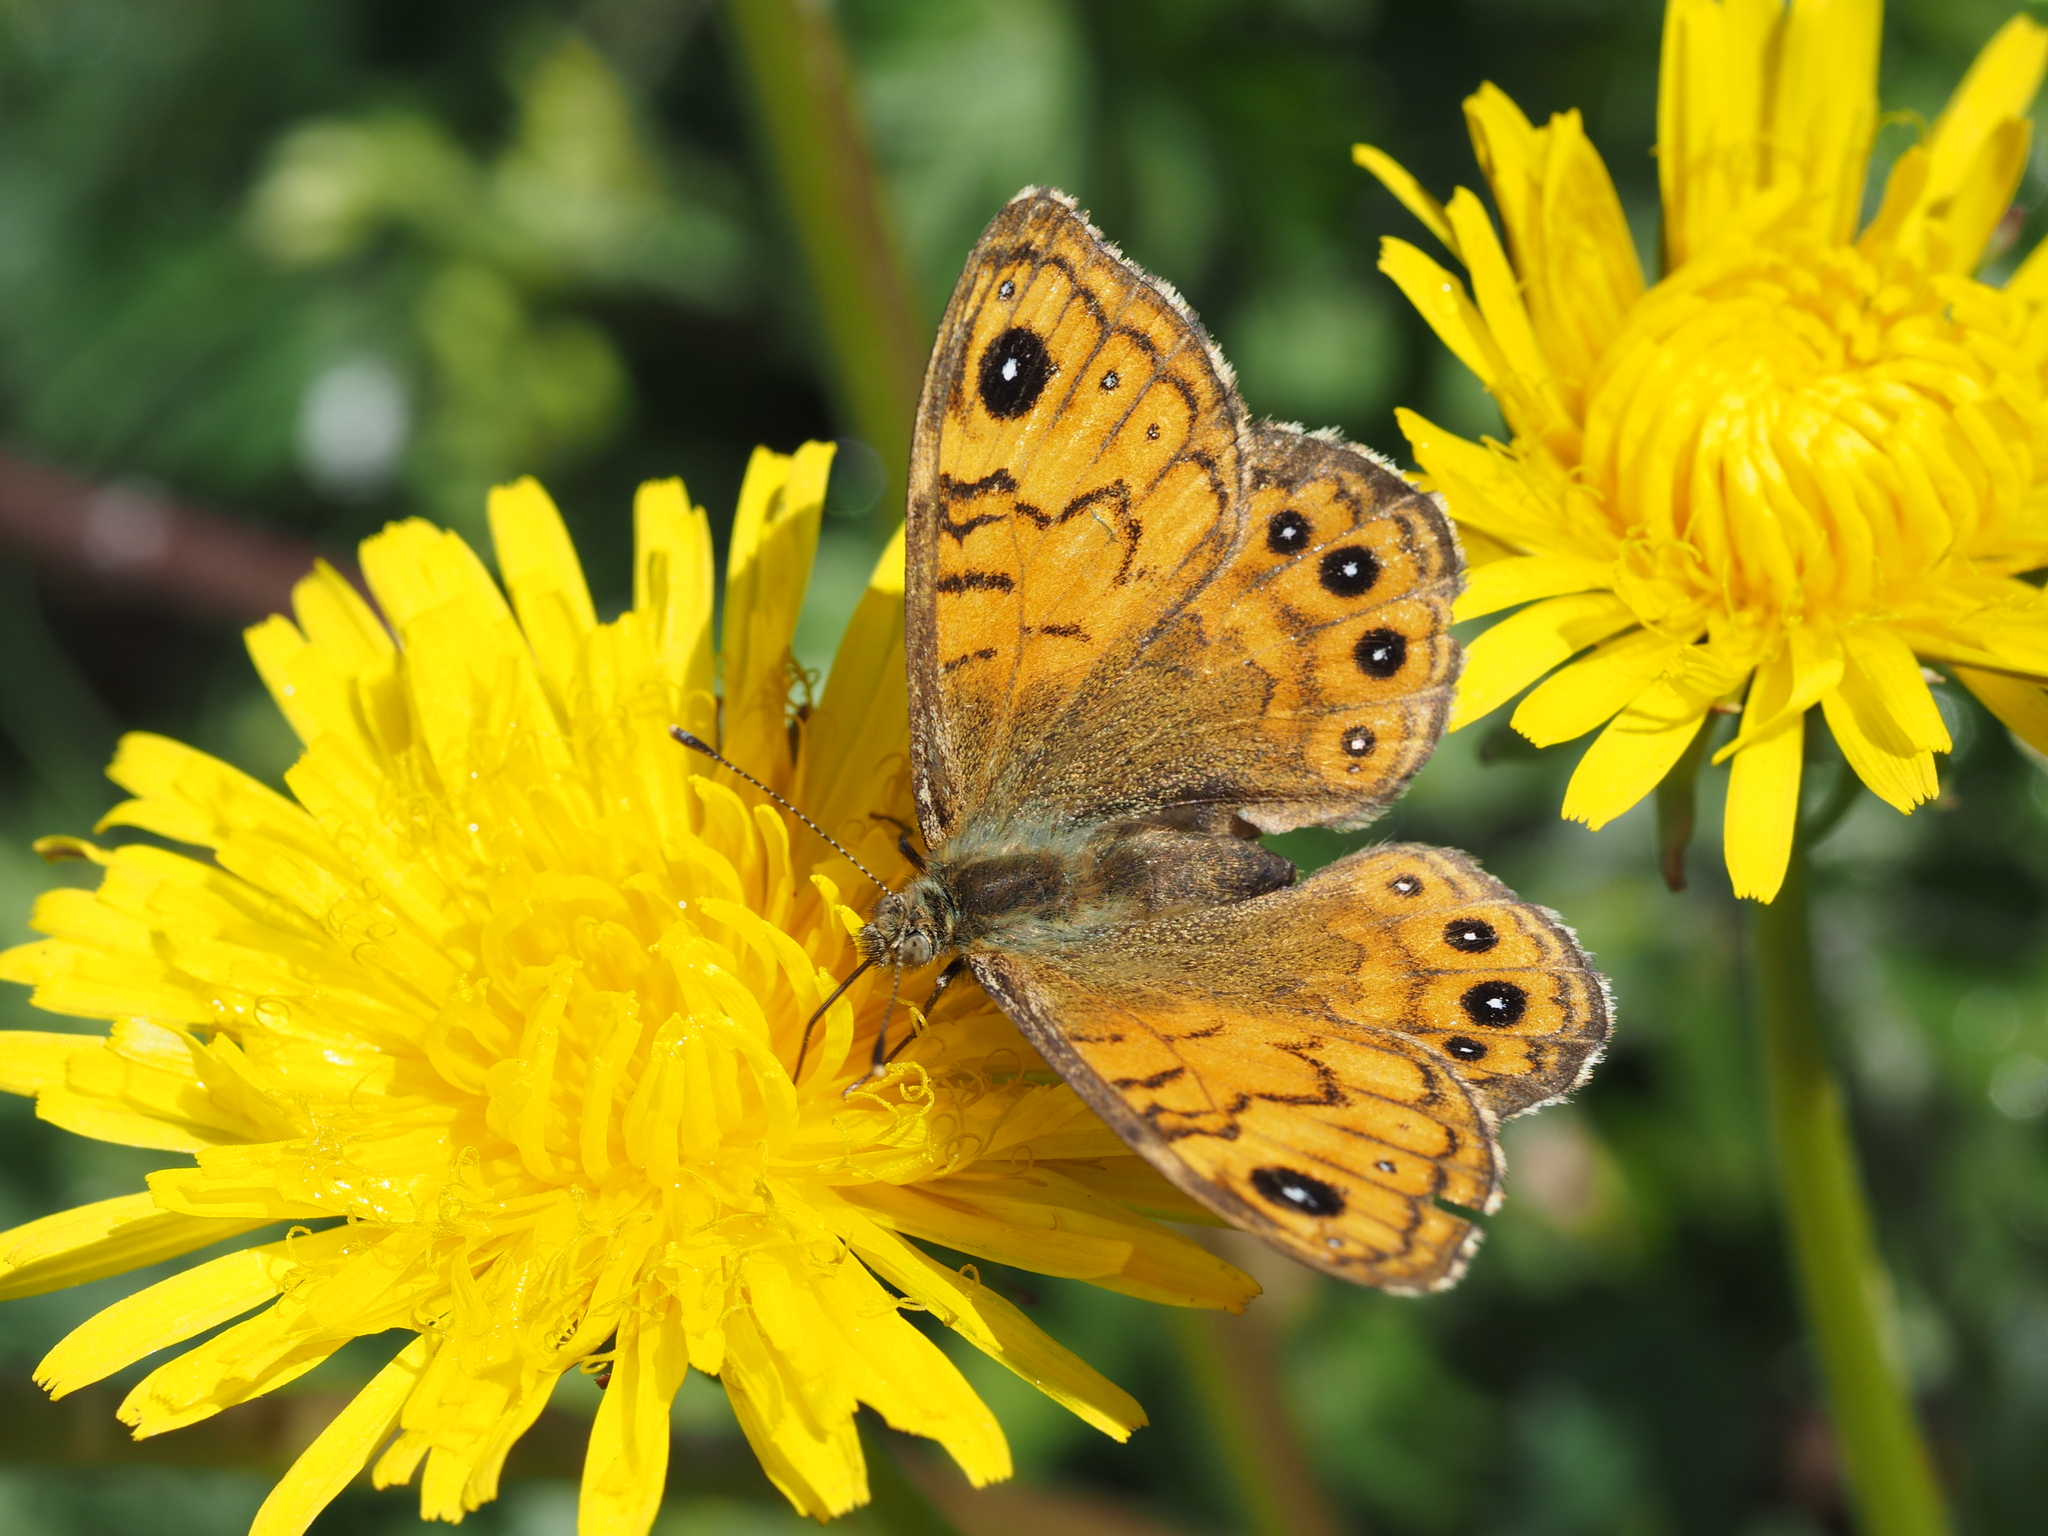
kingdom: Animalia
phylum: Arthropoda
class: Insecta
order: Lepidoptera
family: Nymphalidae
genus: Pararge
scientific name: Pararge Lasiommata megera
